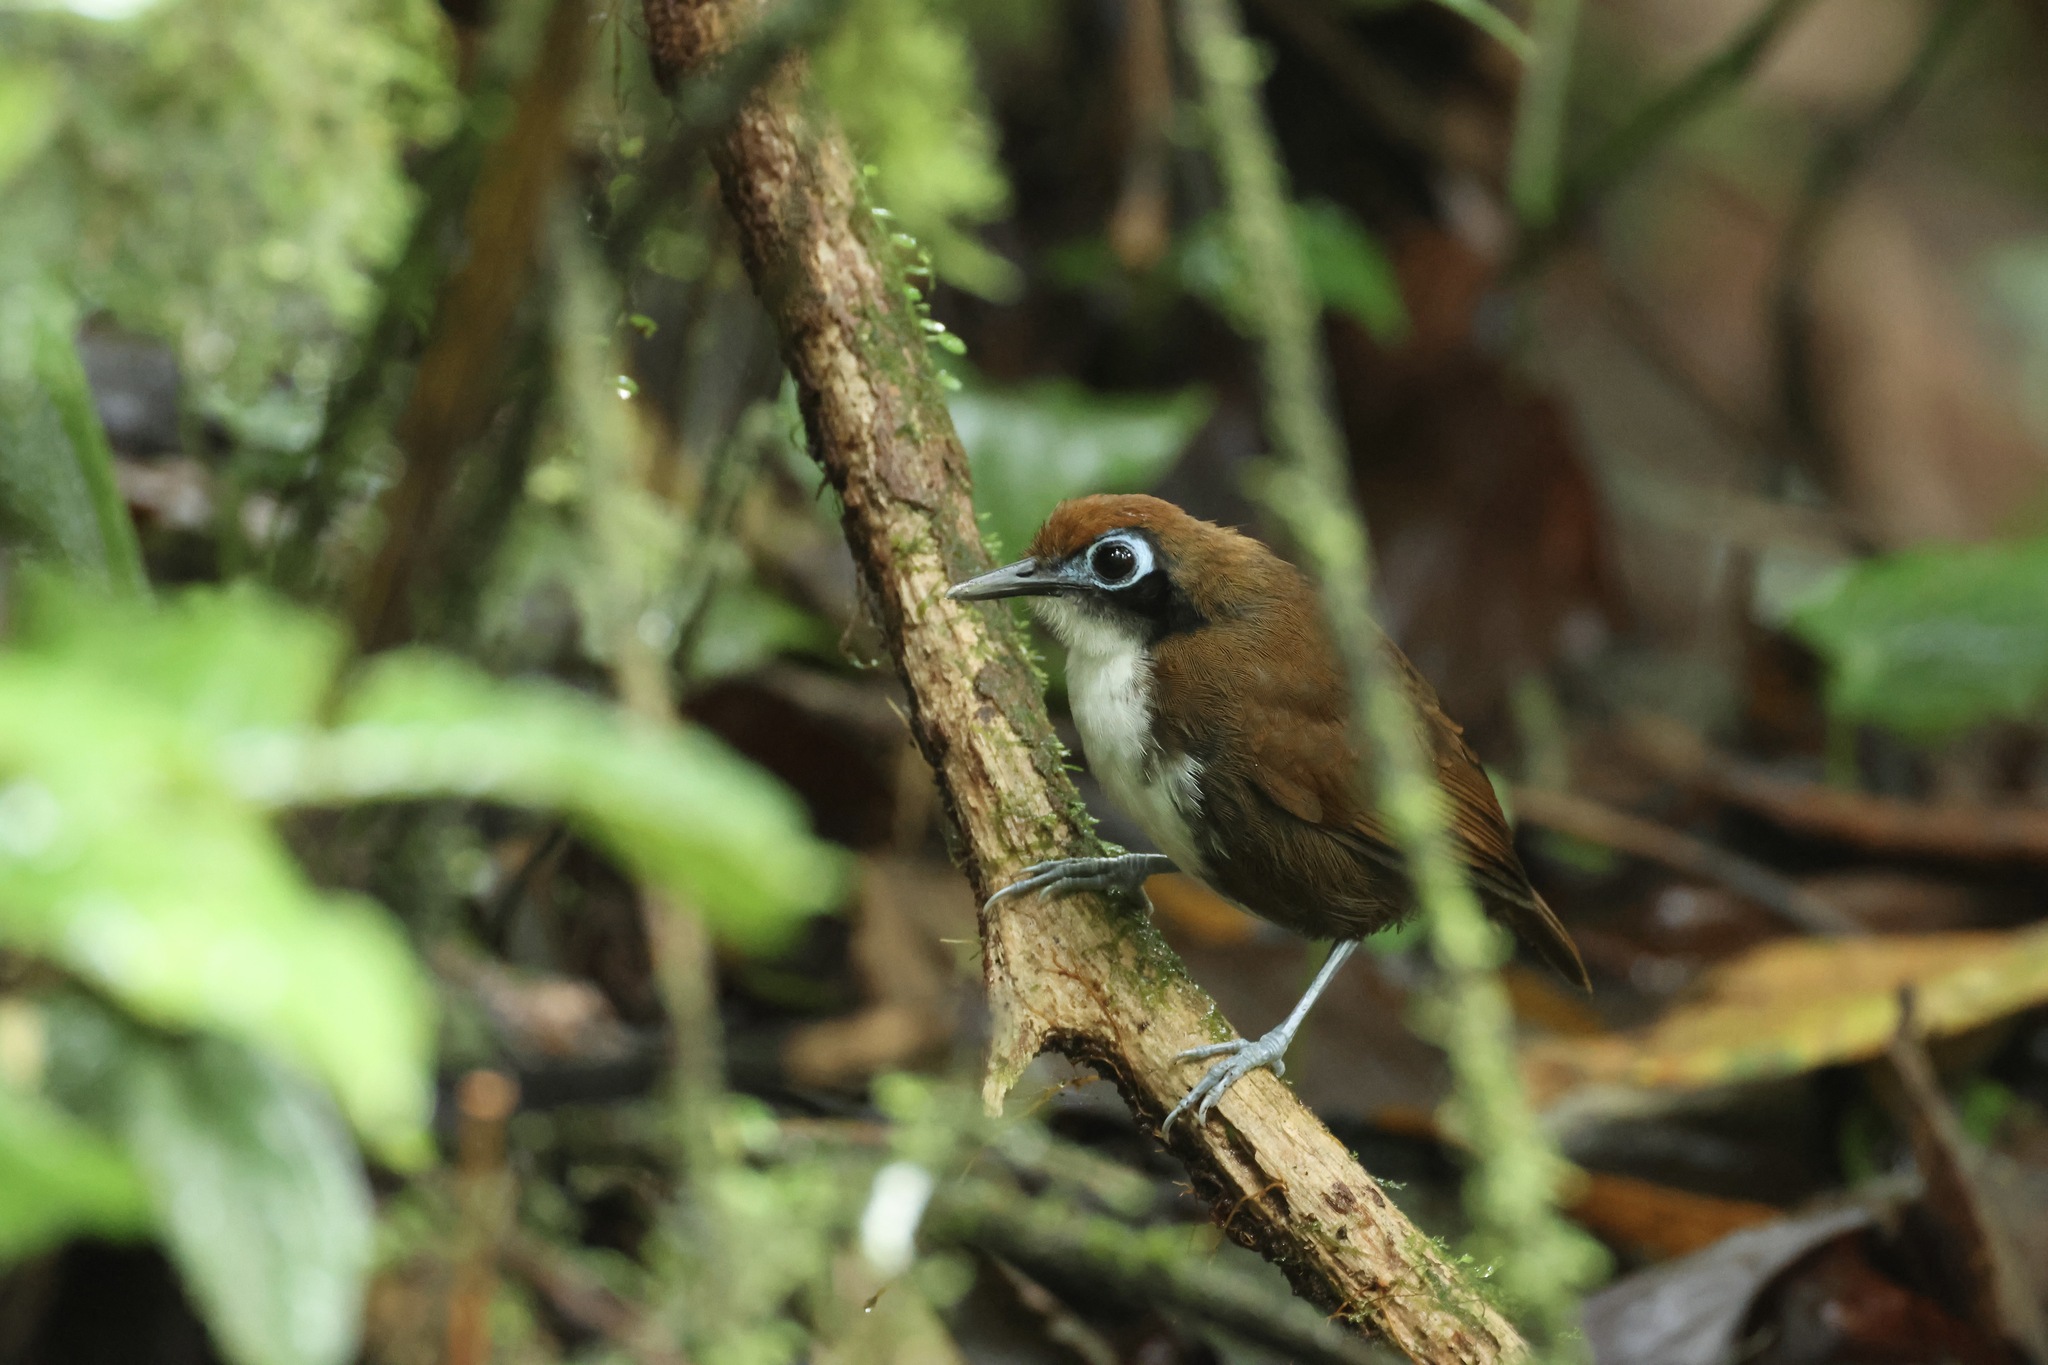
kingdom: Animalia
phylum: Chordata
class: Aves
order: Passeriformes
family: Thamnophilidae
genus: Gymnopithys
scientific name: Gymnopithys leucaspis
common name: White-cheeked antbird
